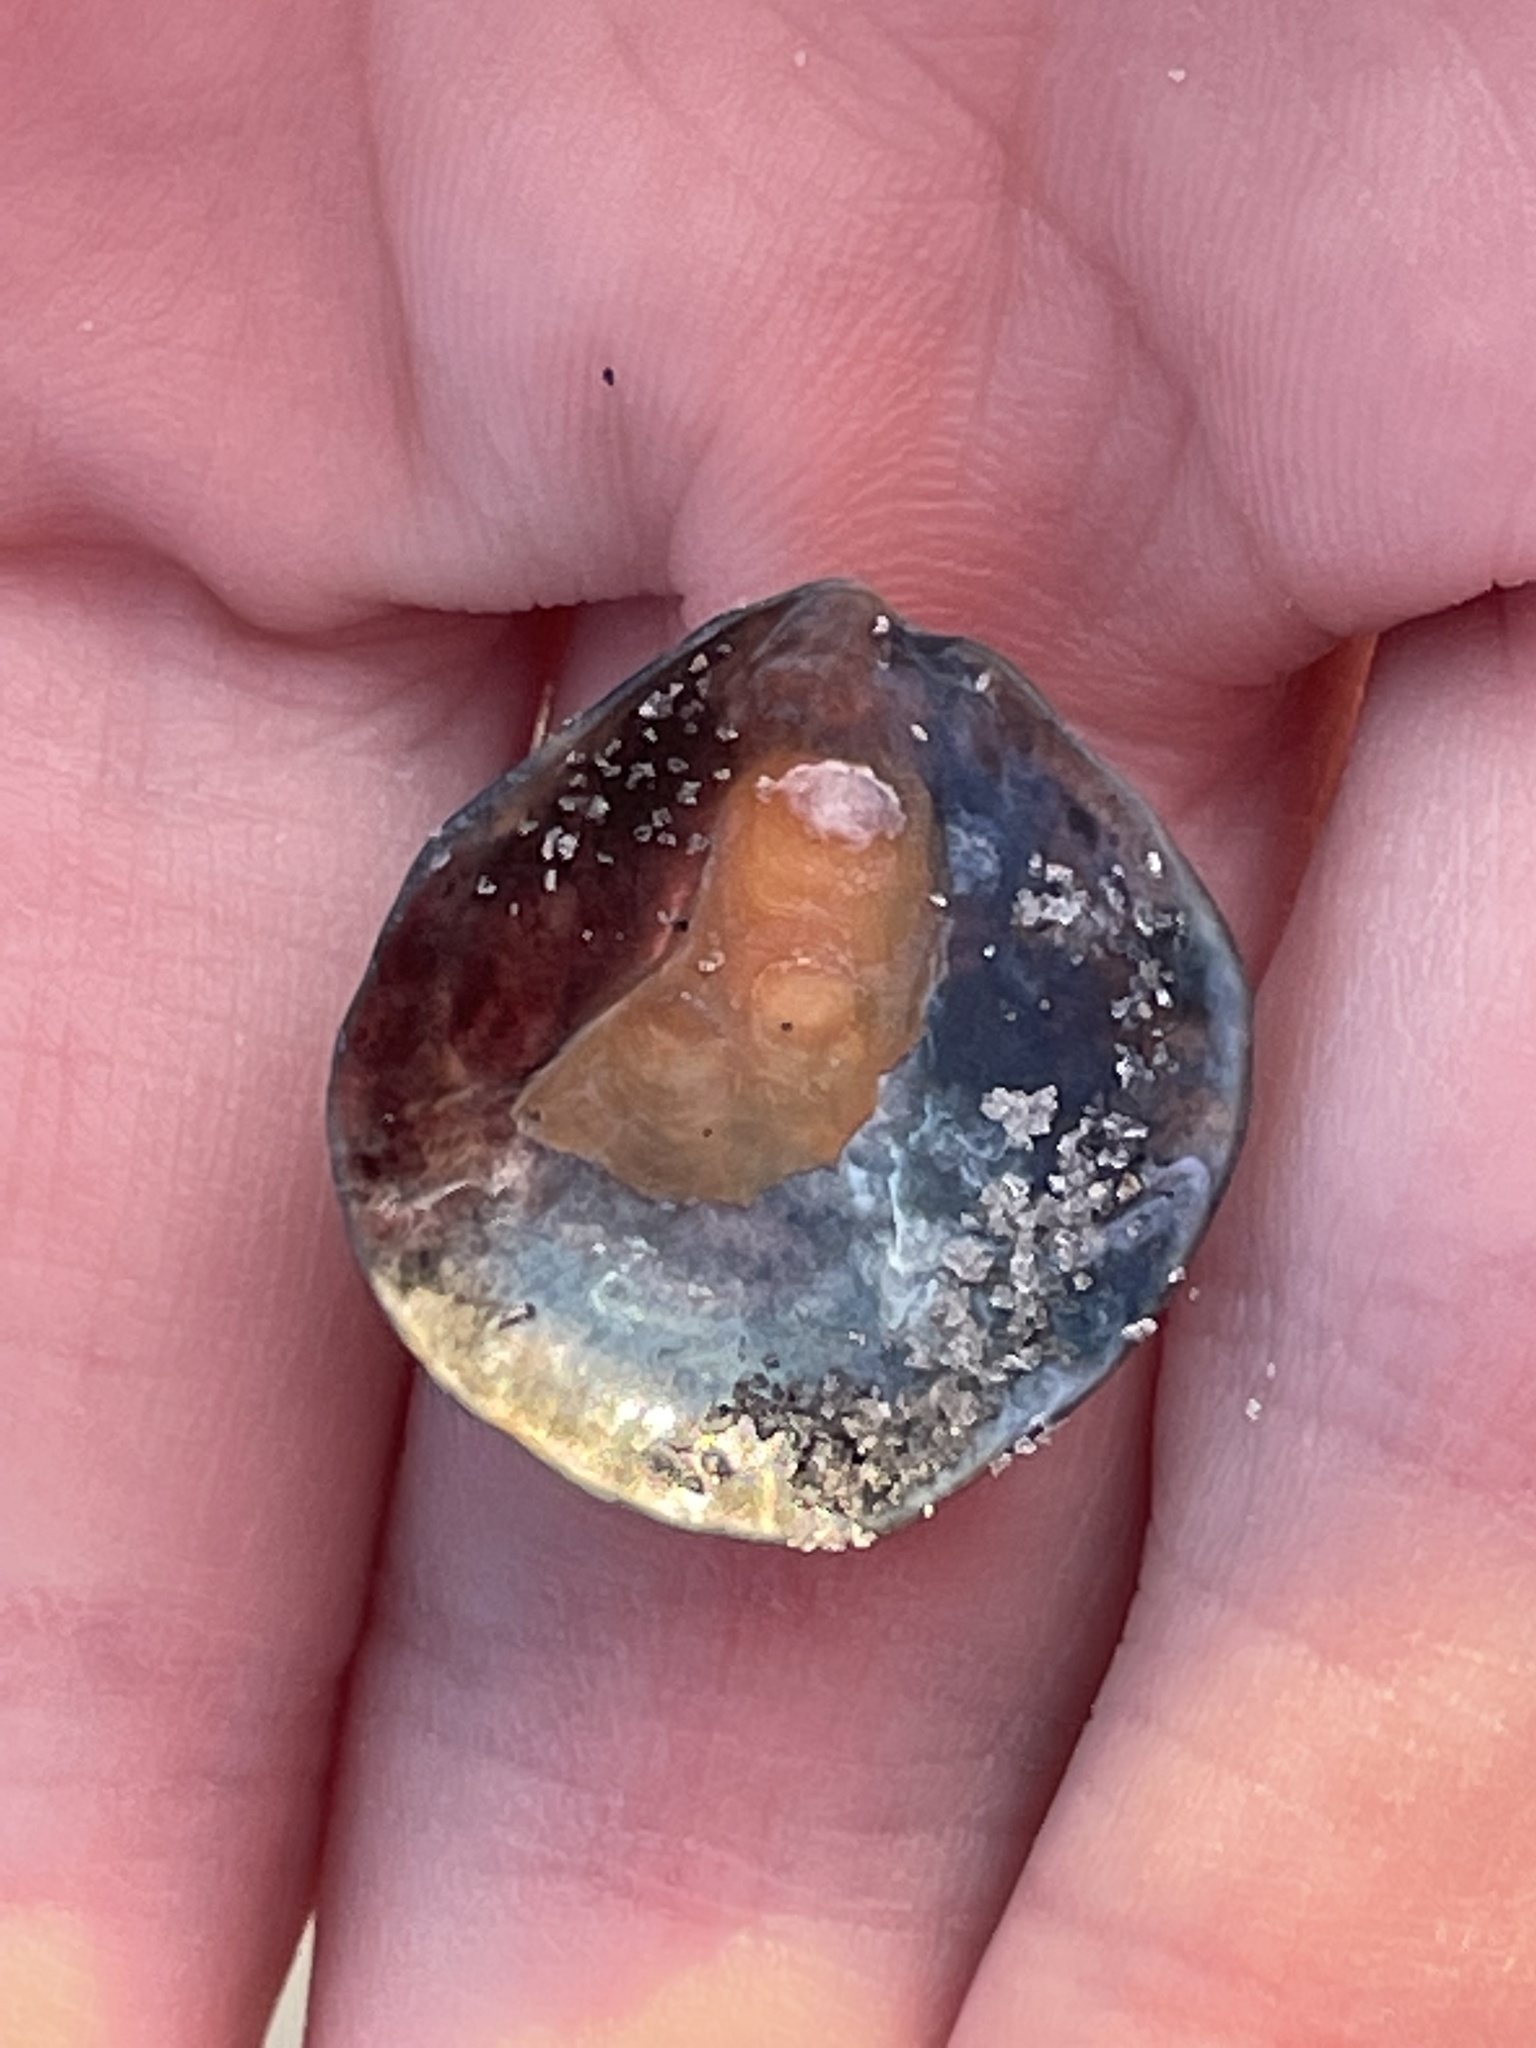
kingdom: Animalia
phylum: Mollusca
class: Bivalvia
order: Pectinida
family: Anomiidae
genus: Anomia
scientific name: Anomia simplex
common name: Common jingle shell
